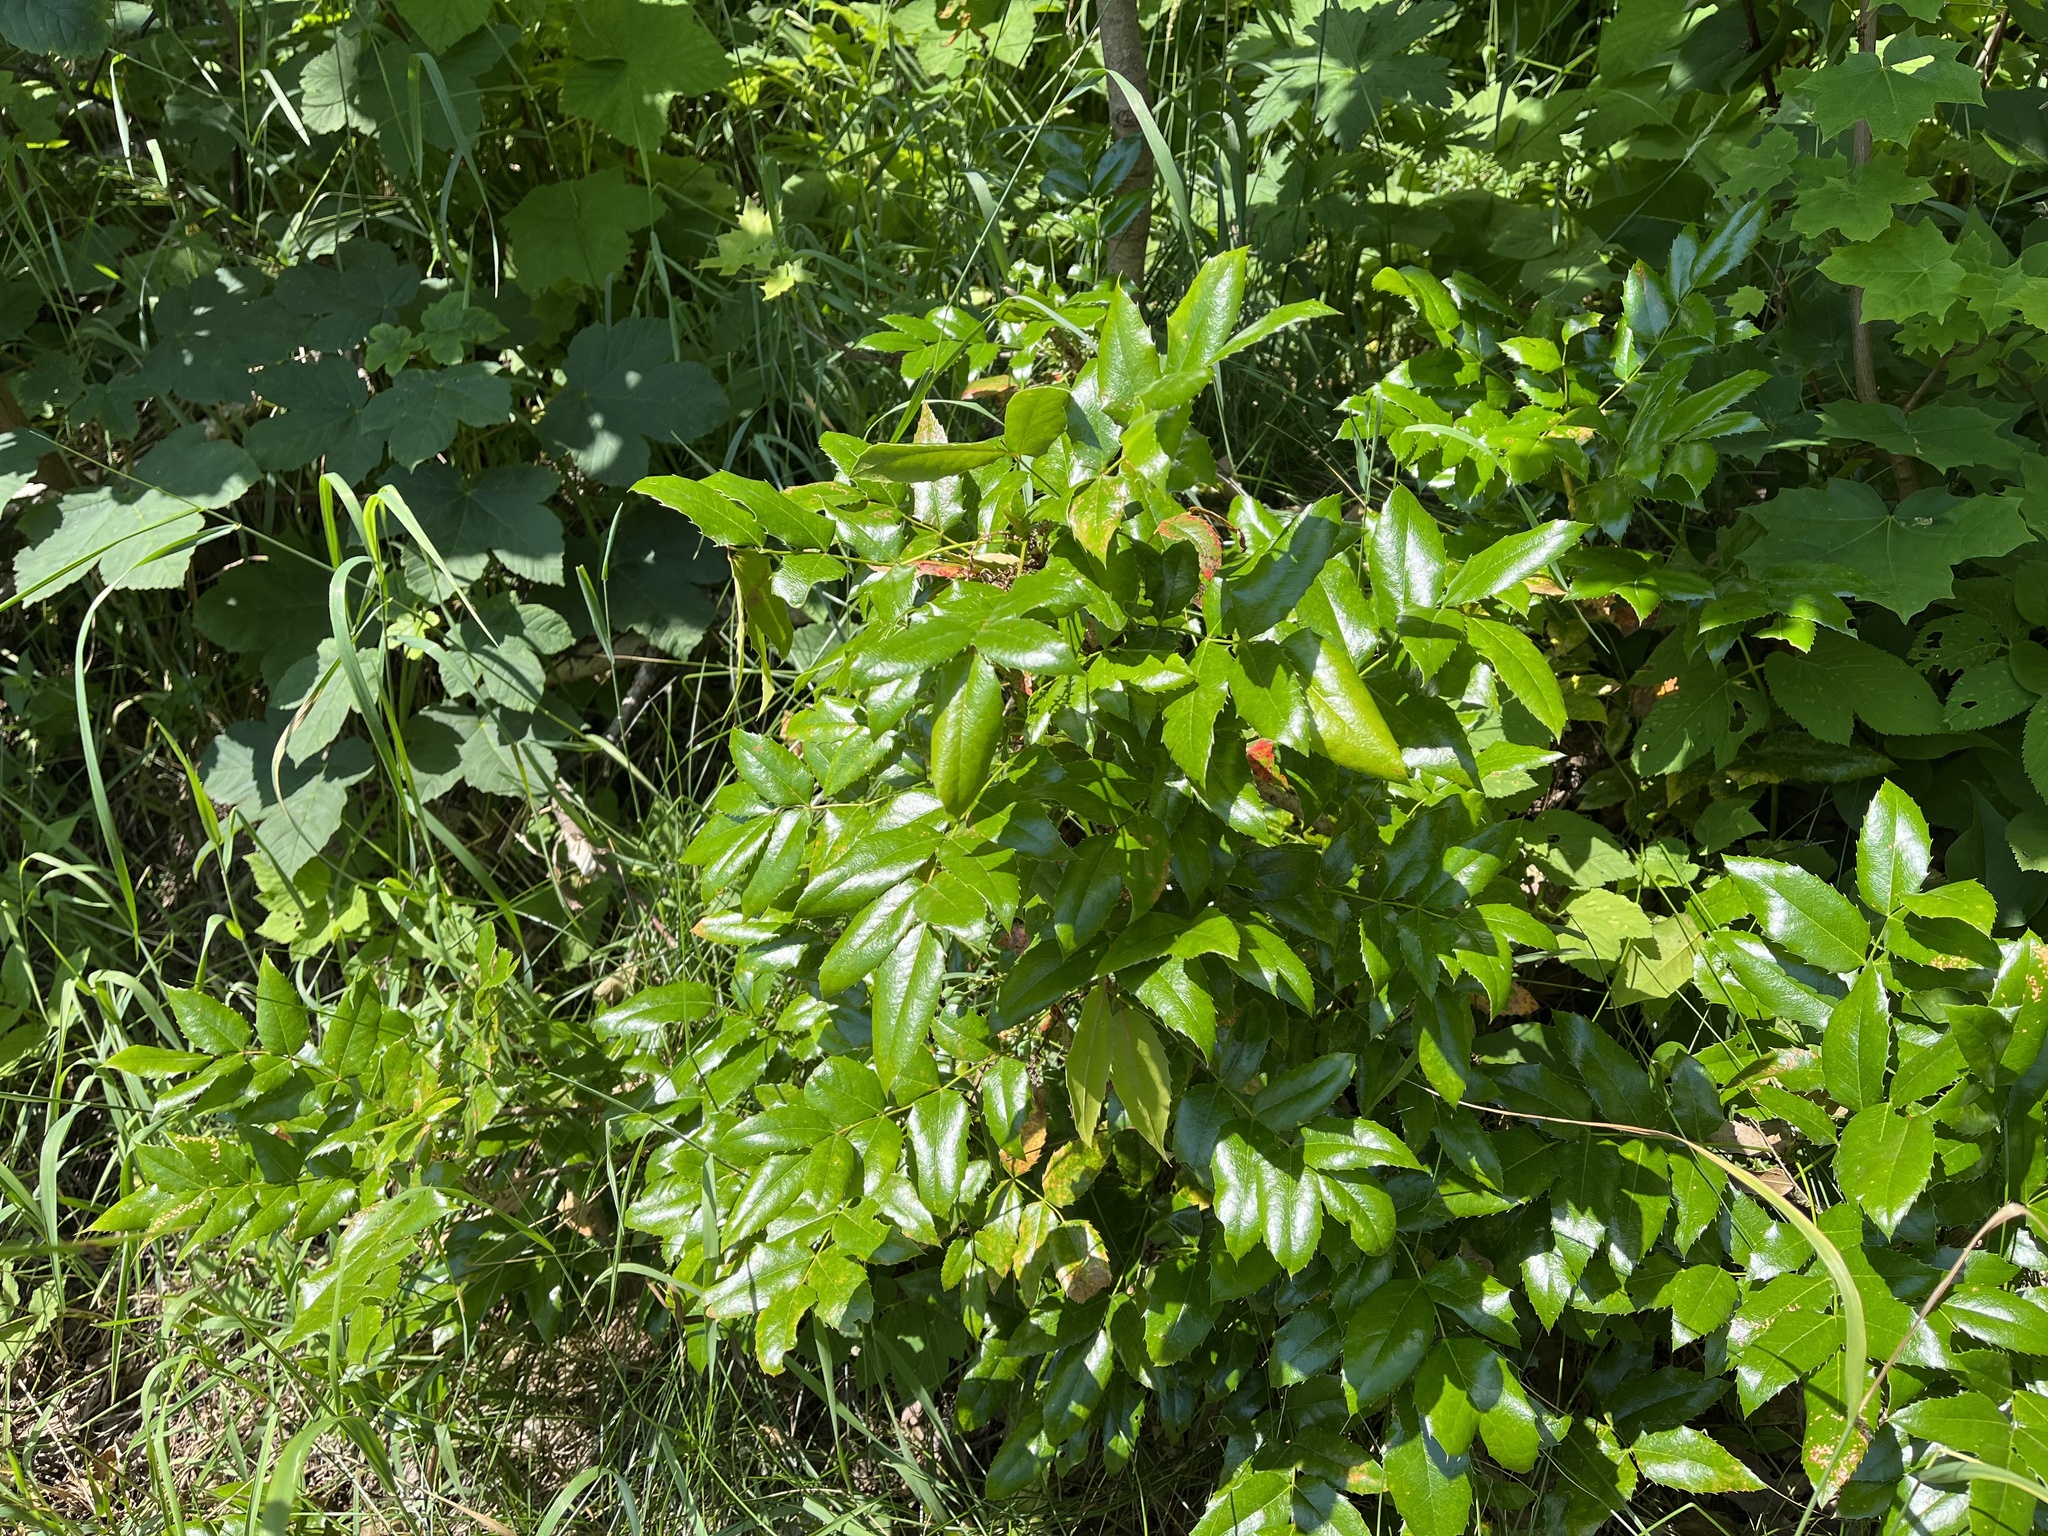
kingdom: Plantae
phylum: Tracheophyta
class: Magnoliopsida
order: Ranunculales
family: Berberidaceae
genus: Mahonia
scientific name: Mahonia aquifolium
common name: Oregon-grape
